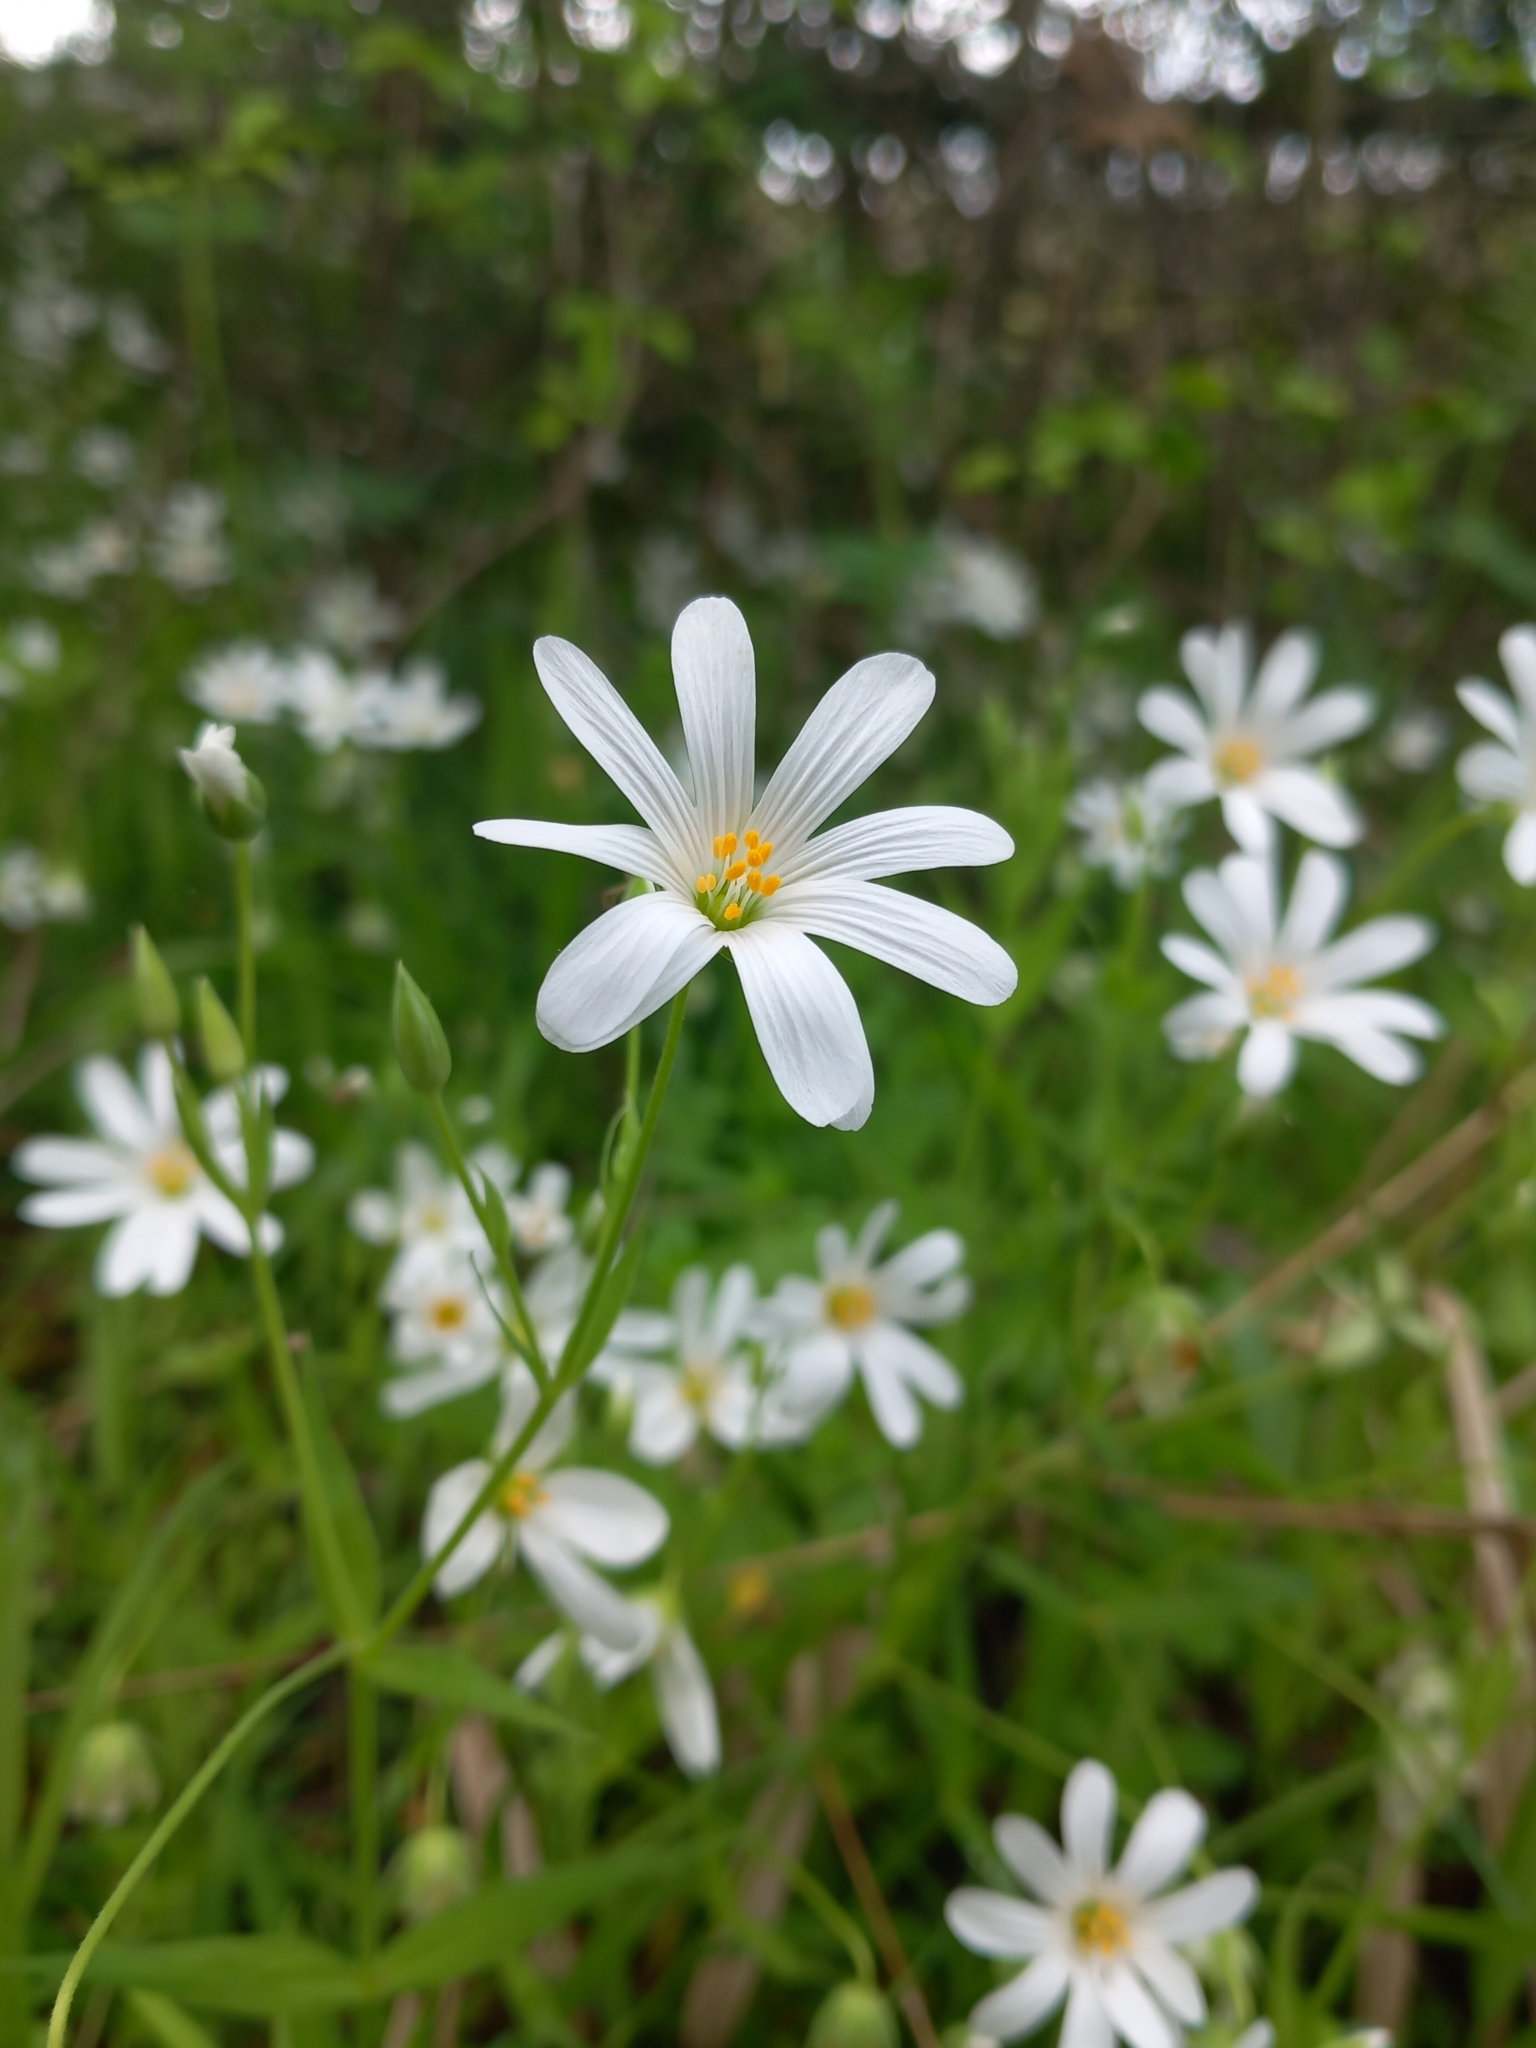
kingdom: Plantae
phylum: Tracheophyta
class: Magnoliopsida
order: Caryophyllales
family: Caryophyllaceae
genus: Rabelera
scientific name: Rabelera holostea
